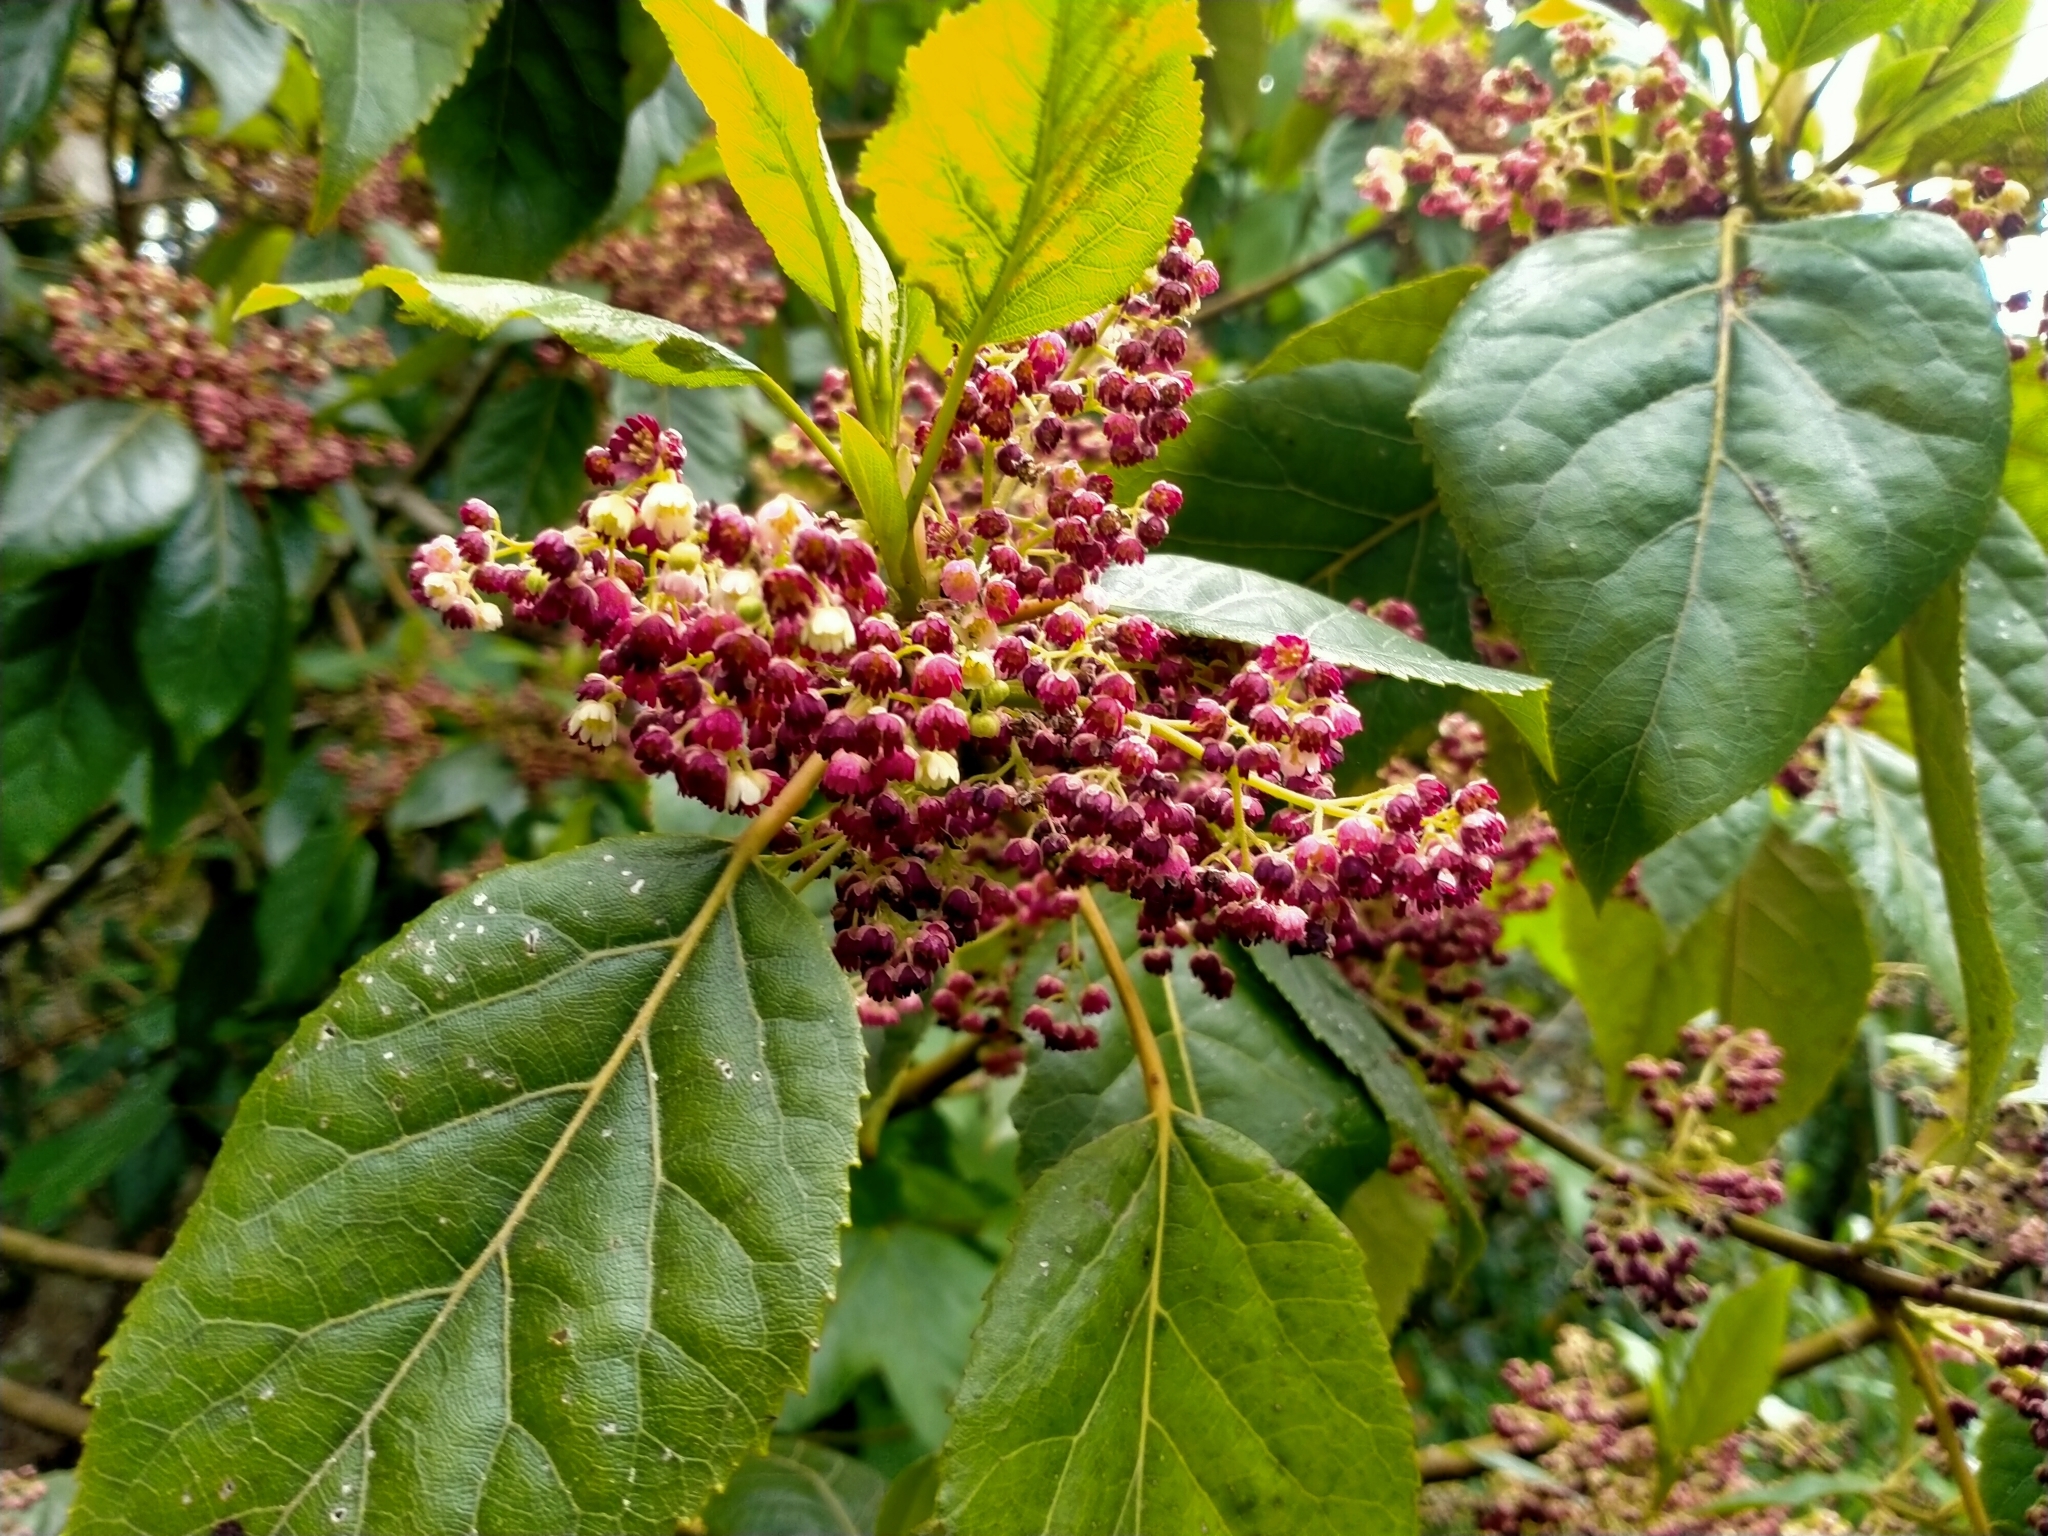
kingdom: Plantae
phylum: Tracheophyta
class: Magnoliopsida
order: Oxalidales
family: Elaeocarpaceae
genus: Aristotelia
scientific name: Aristotelia serrata
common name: New zealand wineberry
